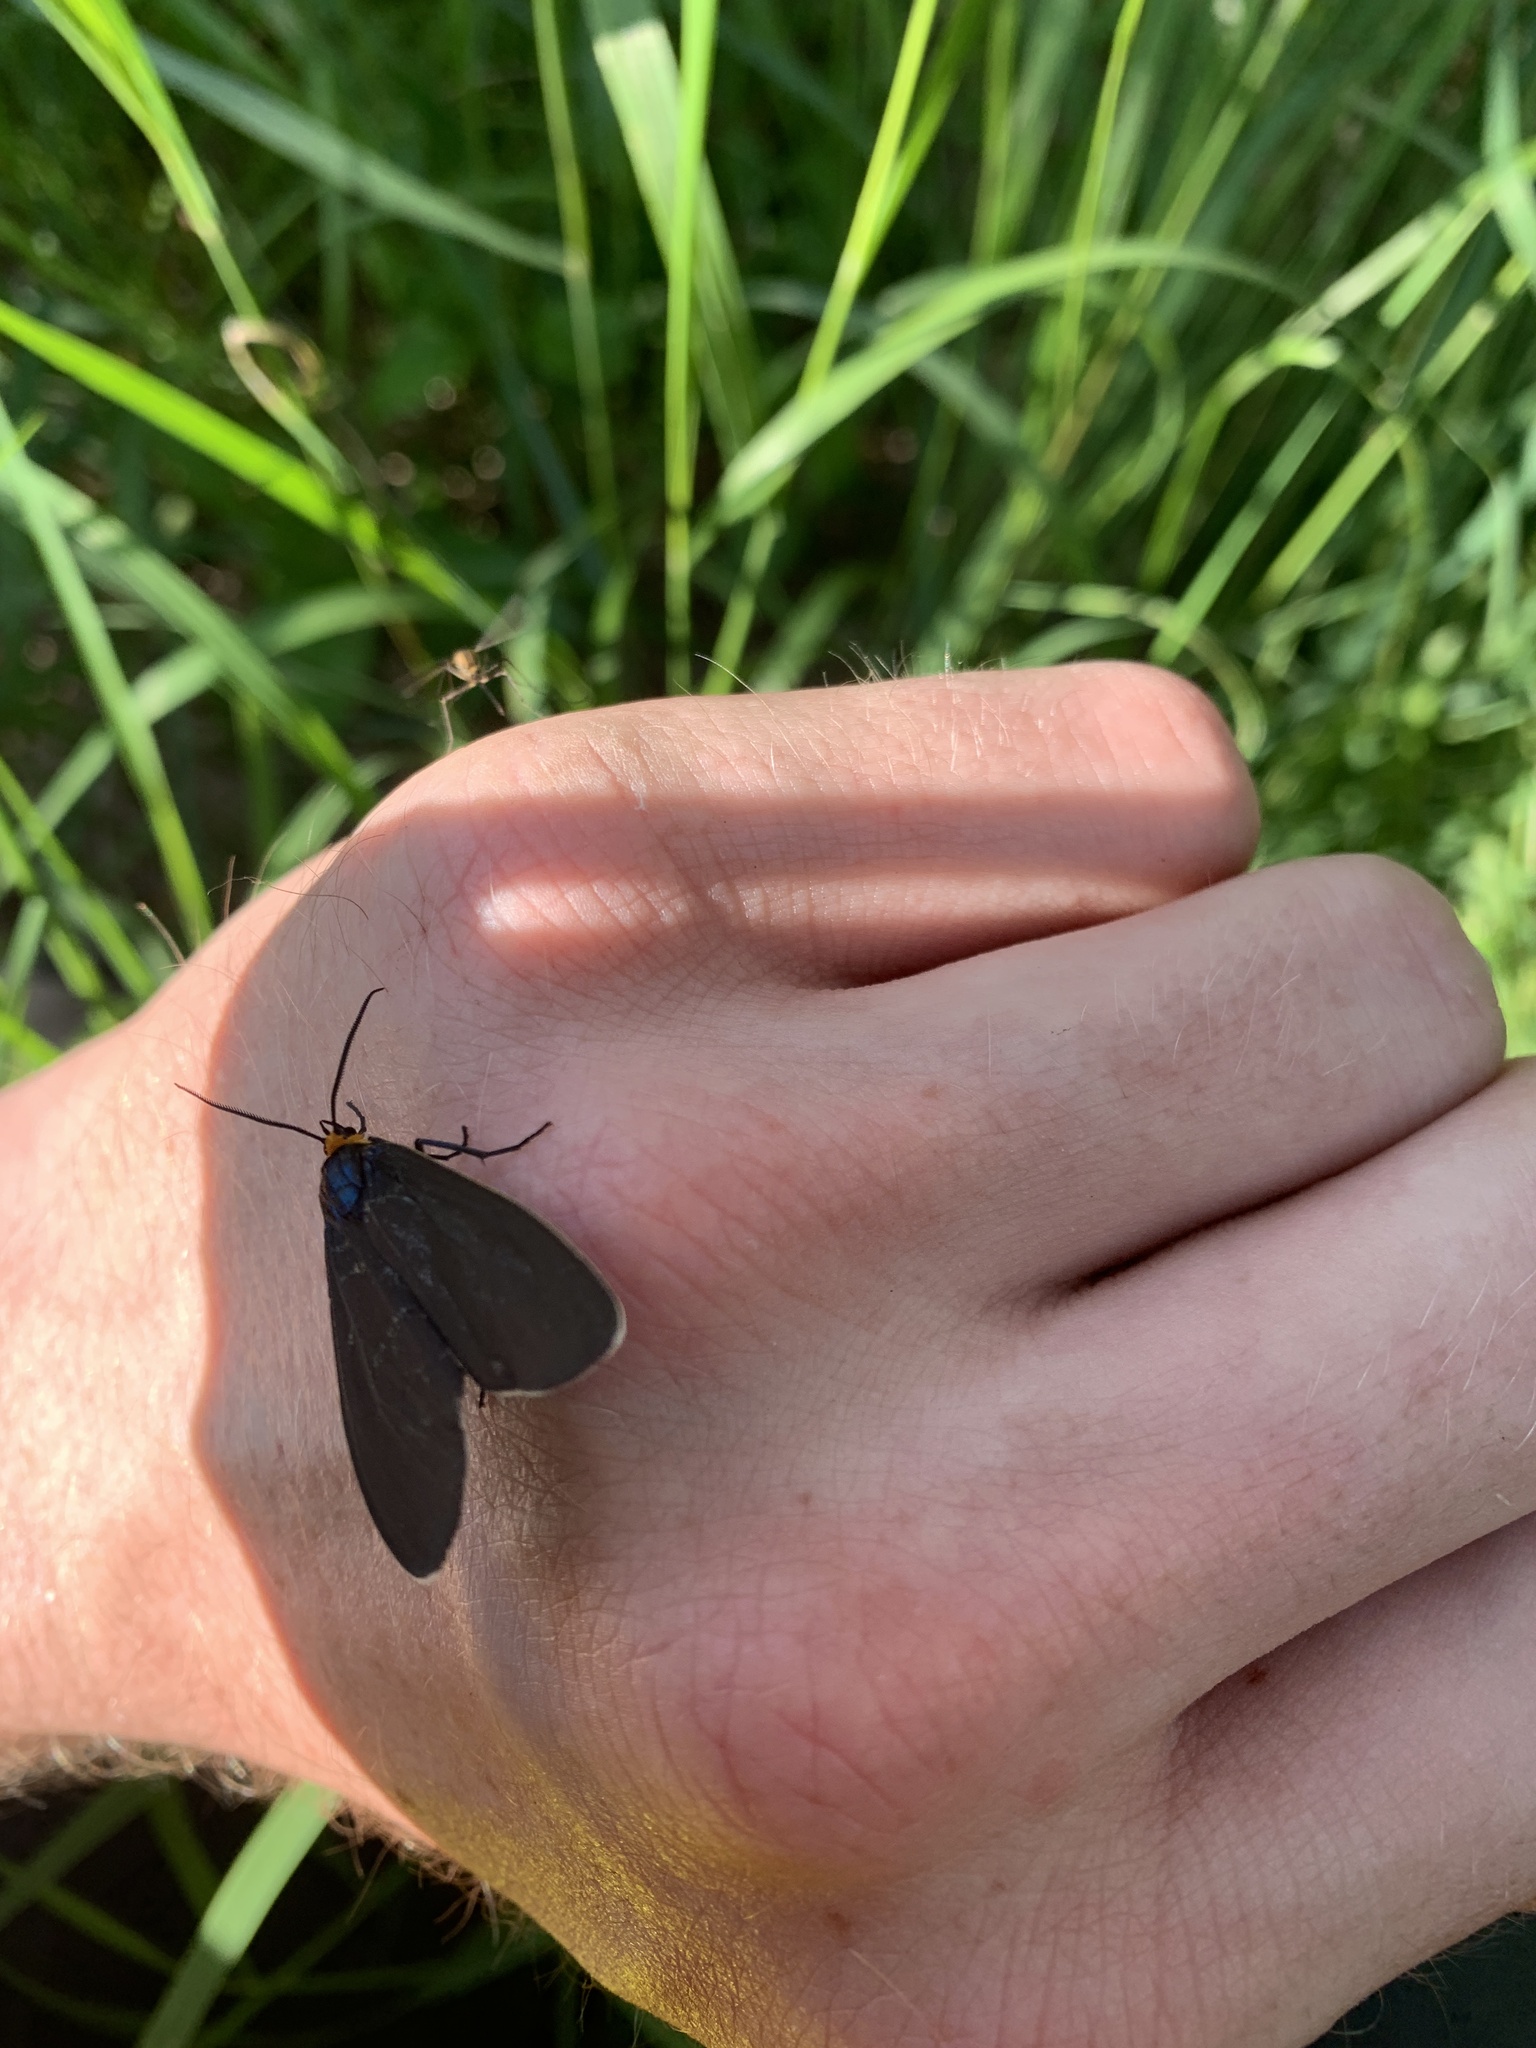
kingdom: Animalia
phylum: Arthropoda
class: Insecta
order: Lepidoptera
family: Erebidae
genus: Ctenucha
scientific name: Ctenucha virginica
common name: Virginia ctenucha moth
